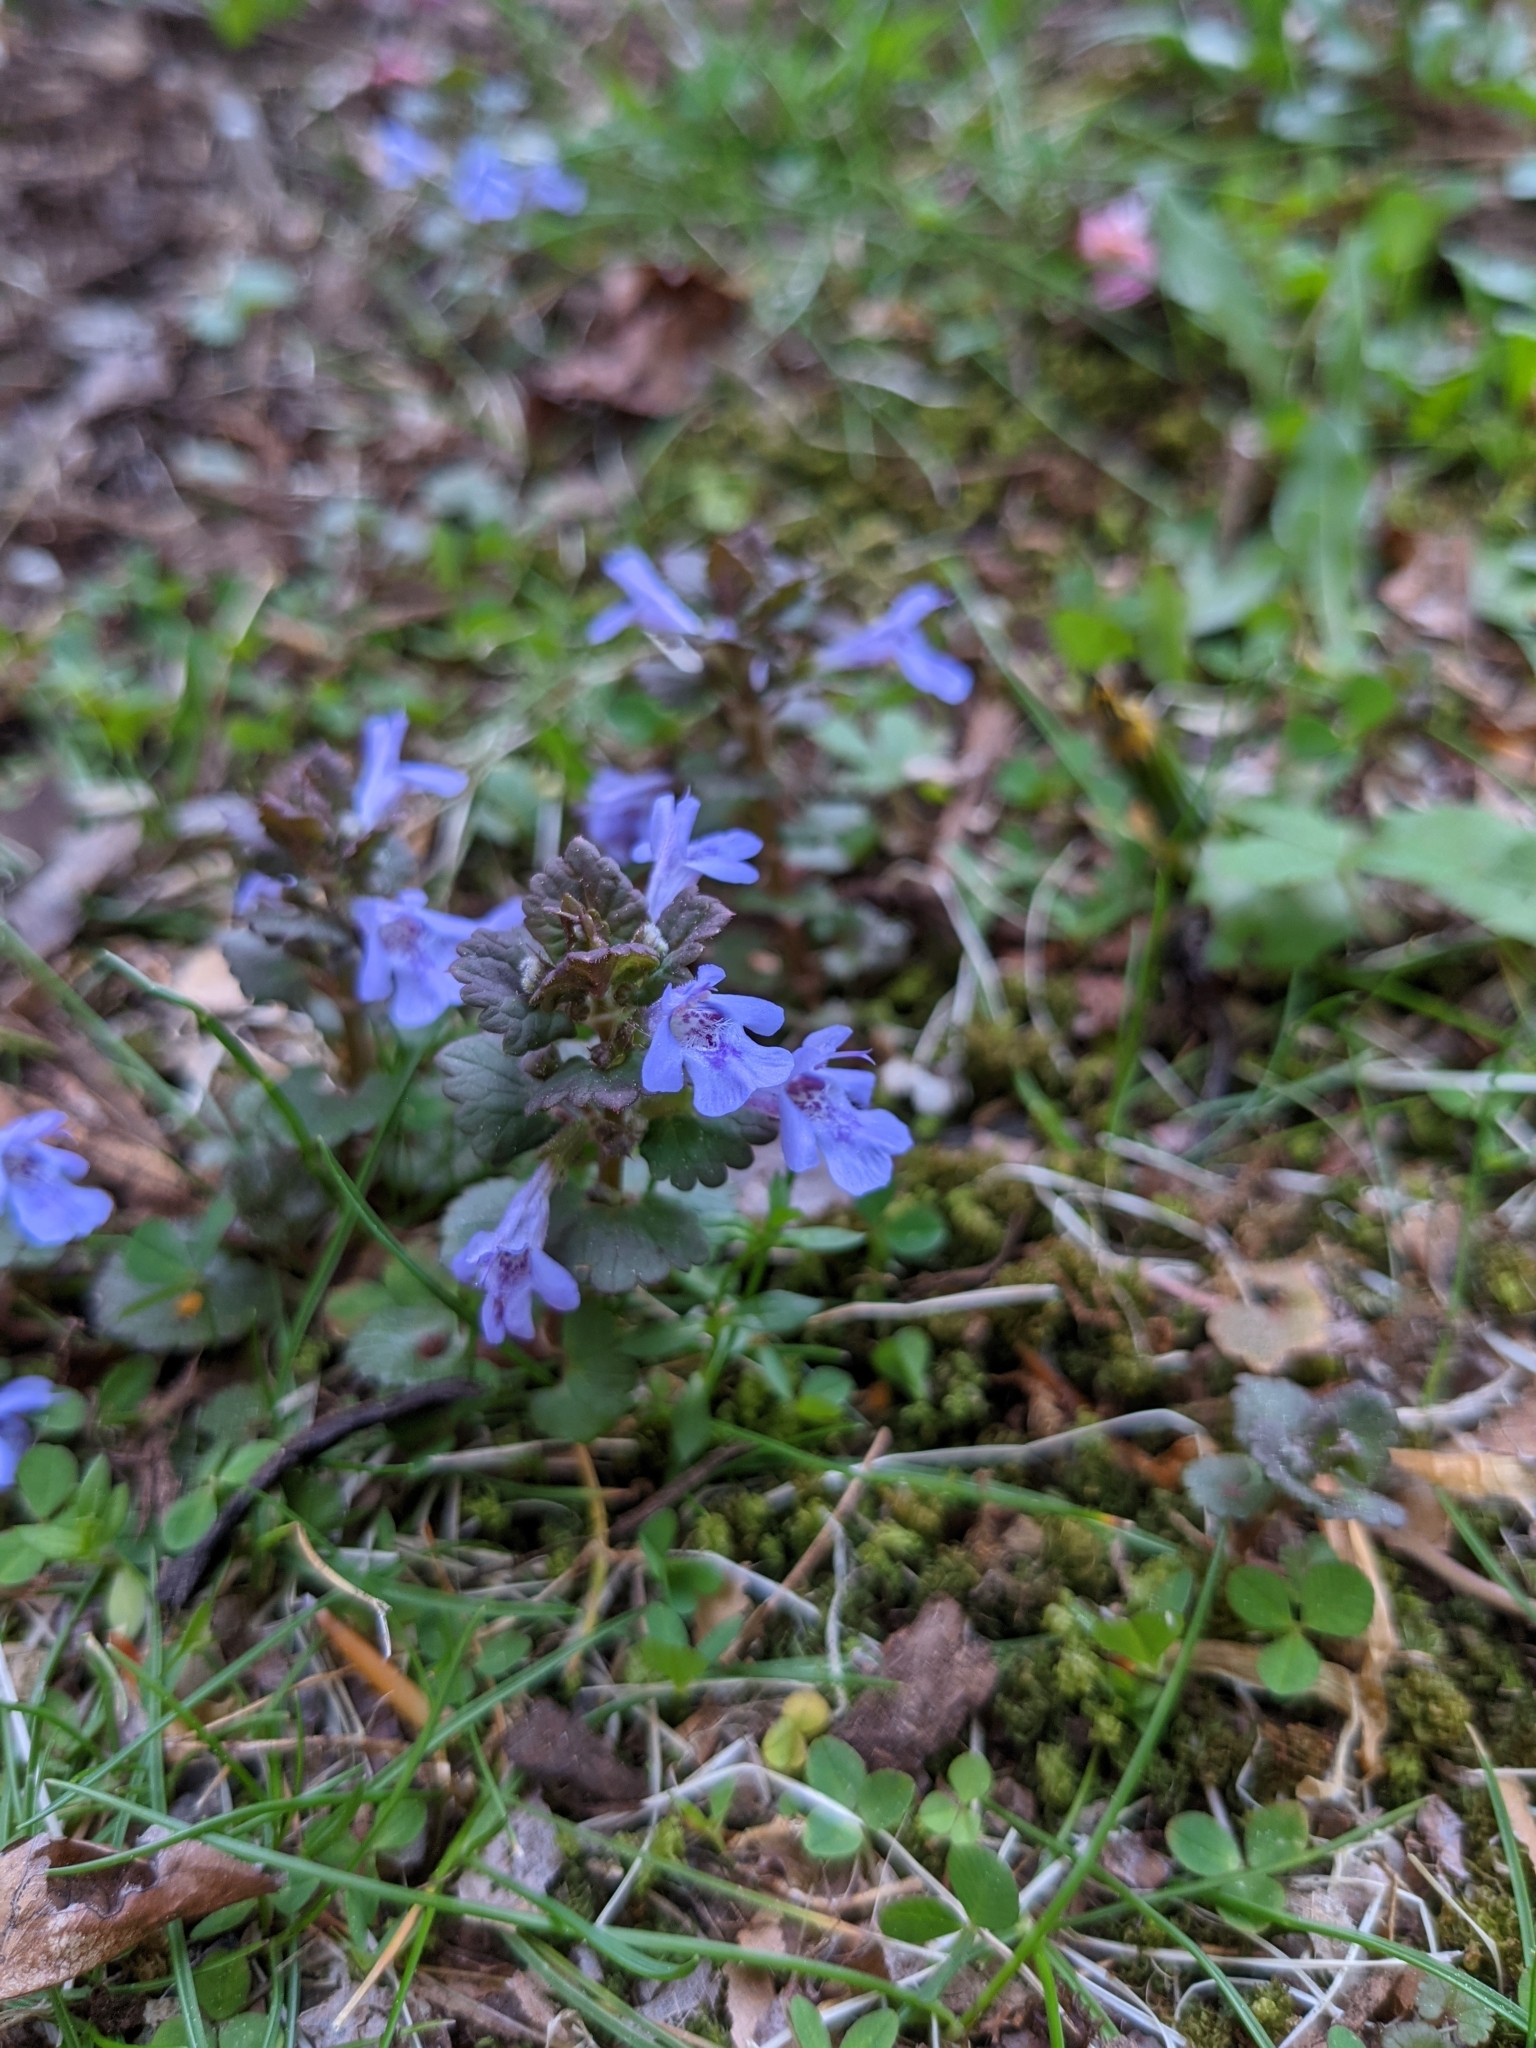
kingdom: Plantae
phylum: Tracheophyta
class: Magnoliopsida
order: Lamiales
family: Lamiaceae
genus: Glechoma
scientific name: Glechoma hederacea
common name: Ground ivy
